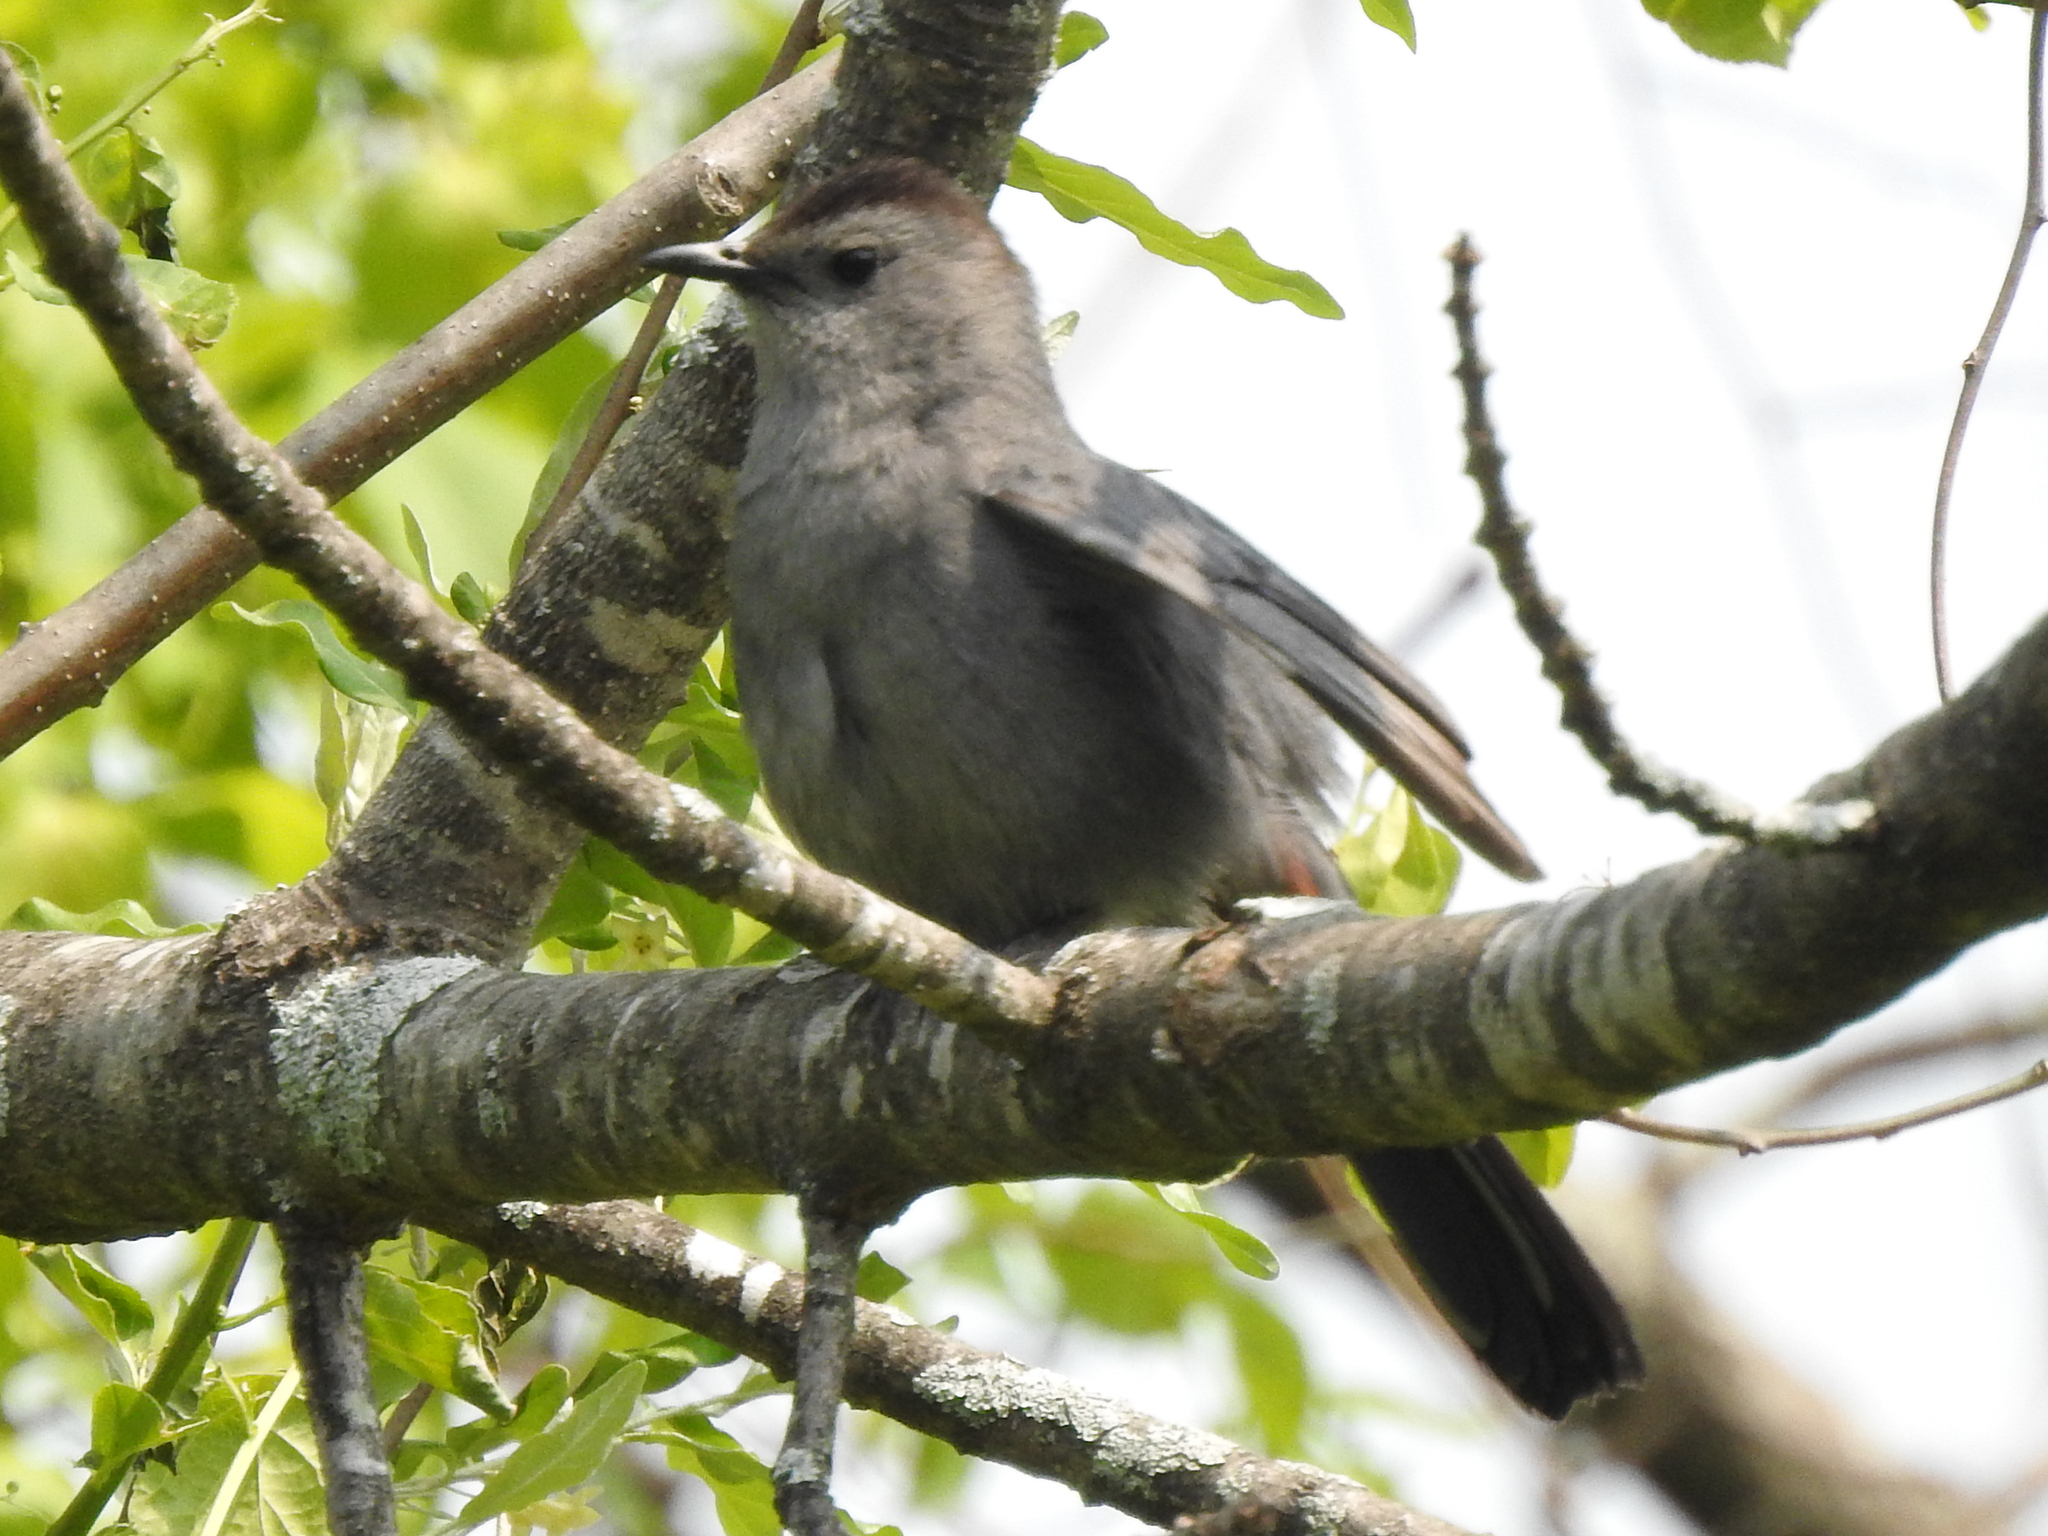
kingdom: Animalia
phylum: Chordata
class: Aves
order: Passeriformes
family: Mimidae
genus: Dumetella
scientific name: Dumetella carolinensis
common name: Gray catbird
